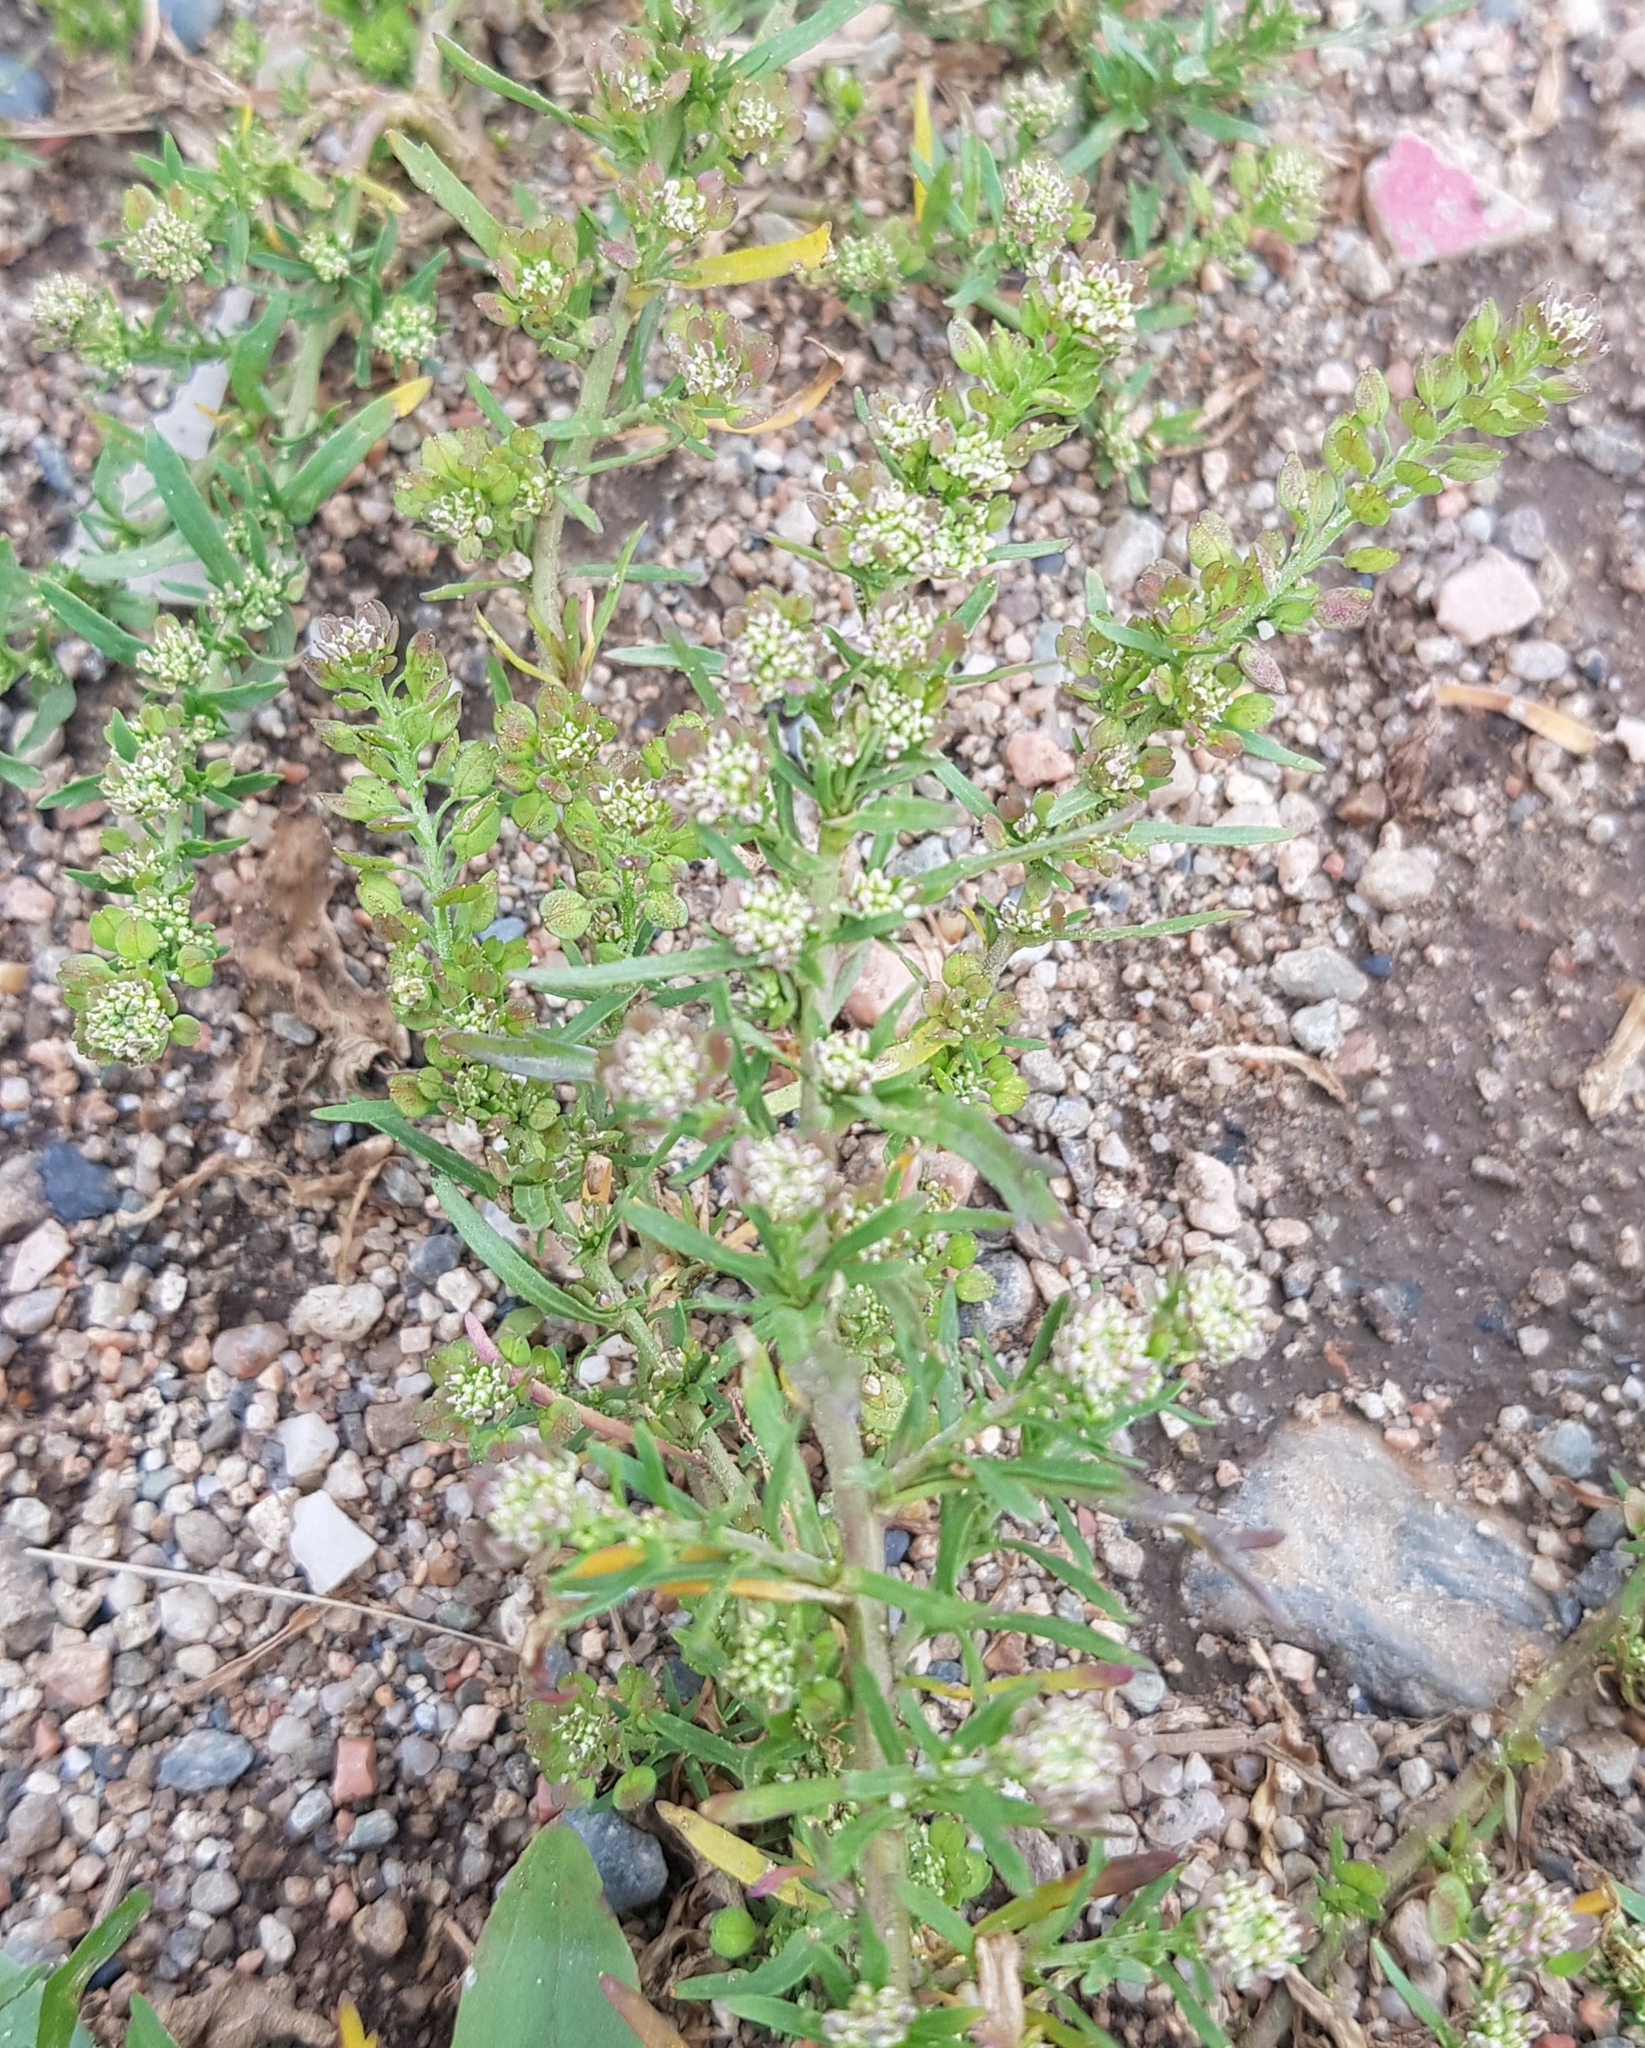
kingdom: Plantae
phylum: Tracheophyta
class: Magnoliopsida
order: Brassicales
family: Brassicaceae
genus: Lepidium
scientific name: Lepidium densiflorum
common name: Miner's pepperwort
